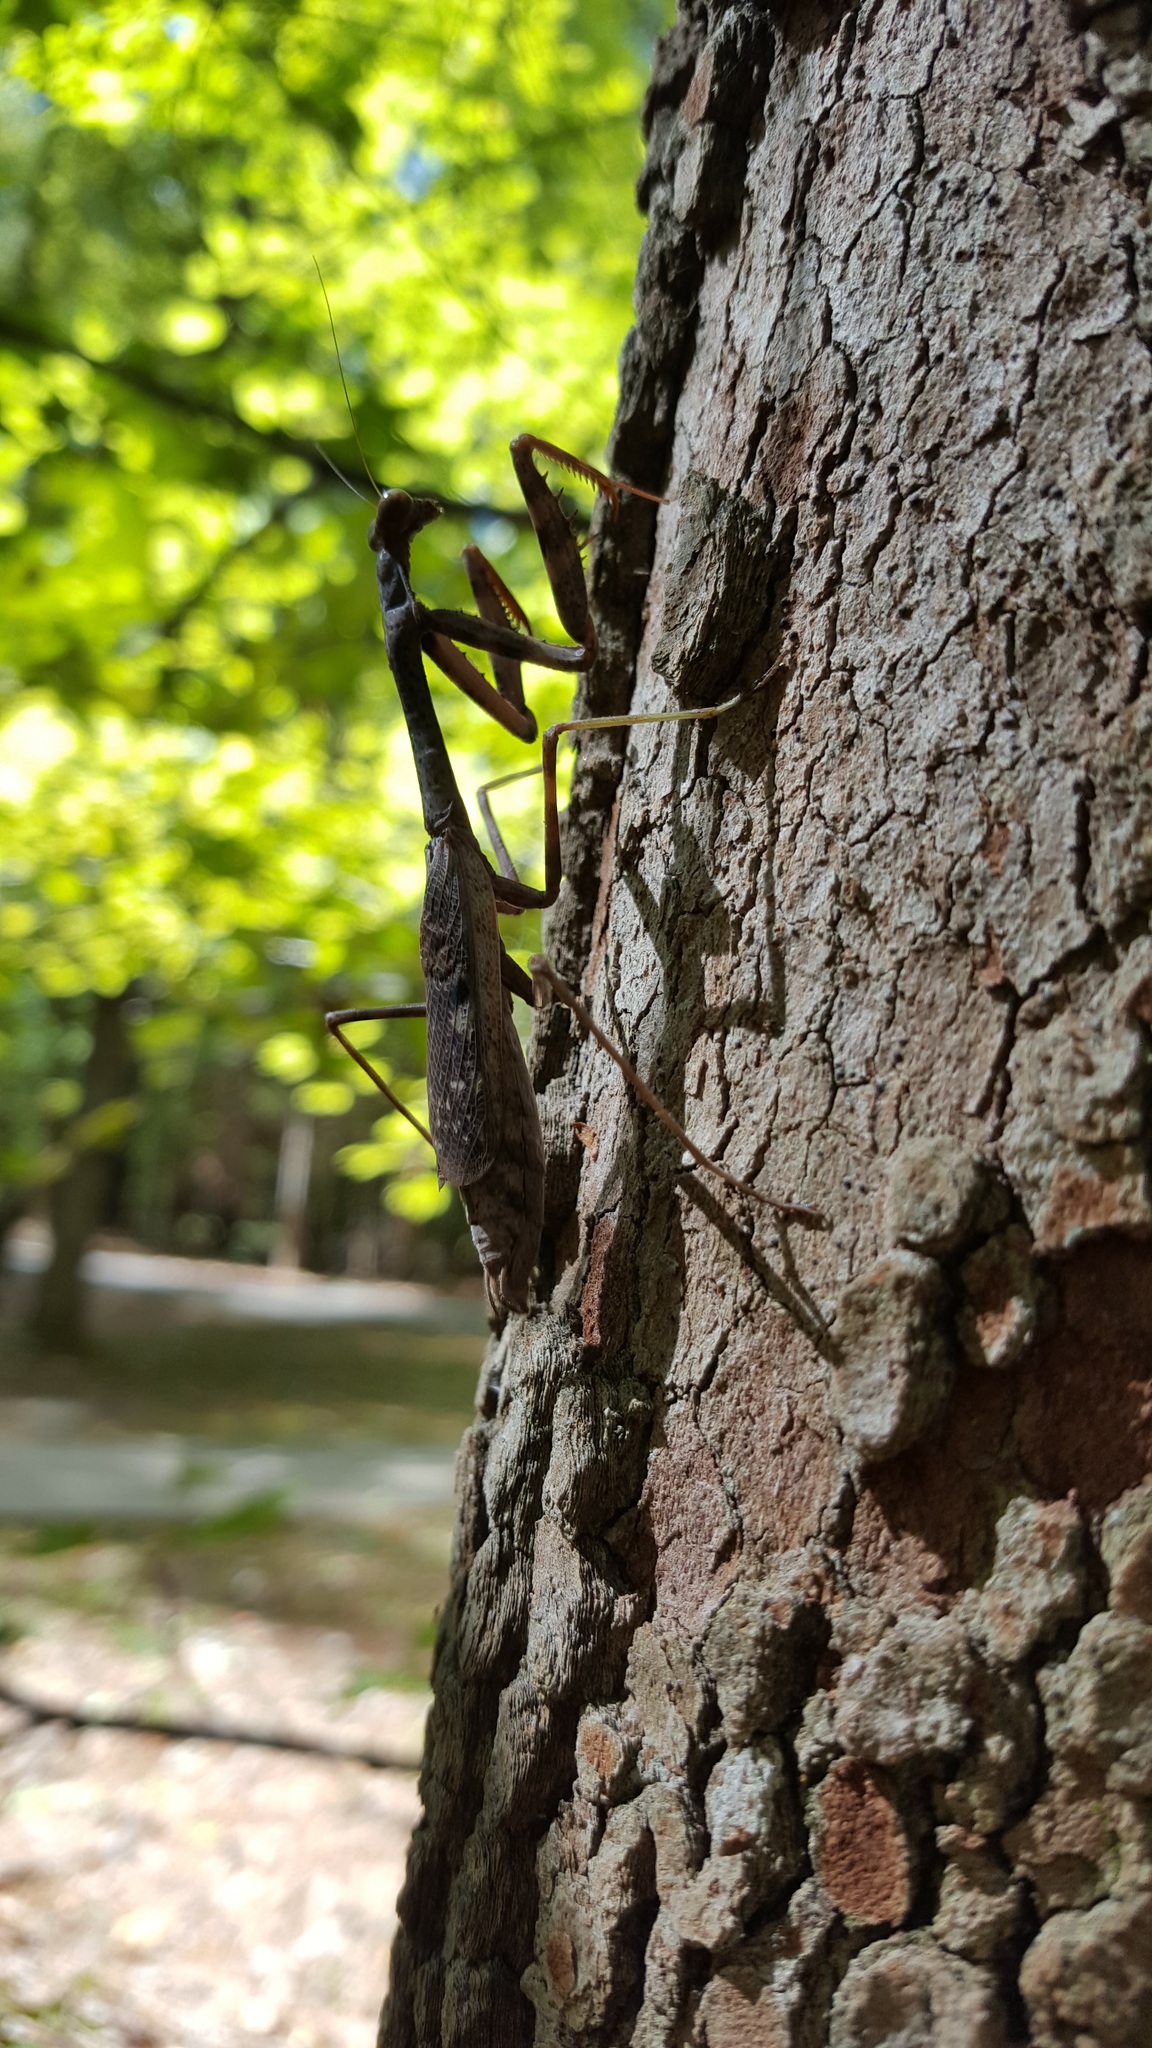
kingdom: Animalia
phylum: Arthropoda
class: Insecta
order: Mantodea
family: Mantidae
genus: Stagmomantis
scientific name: Stagmomantis carolina
